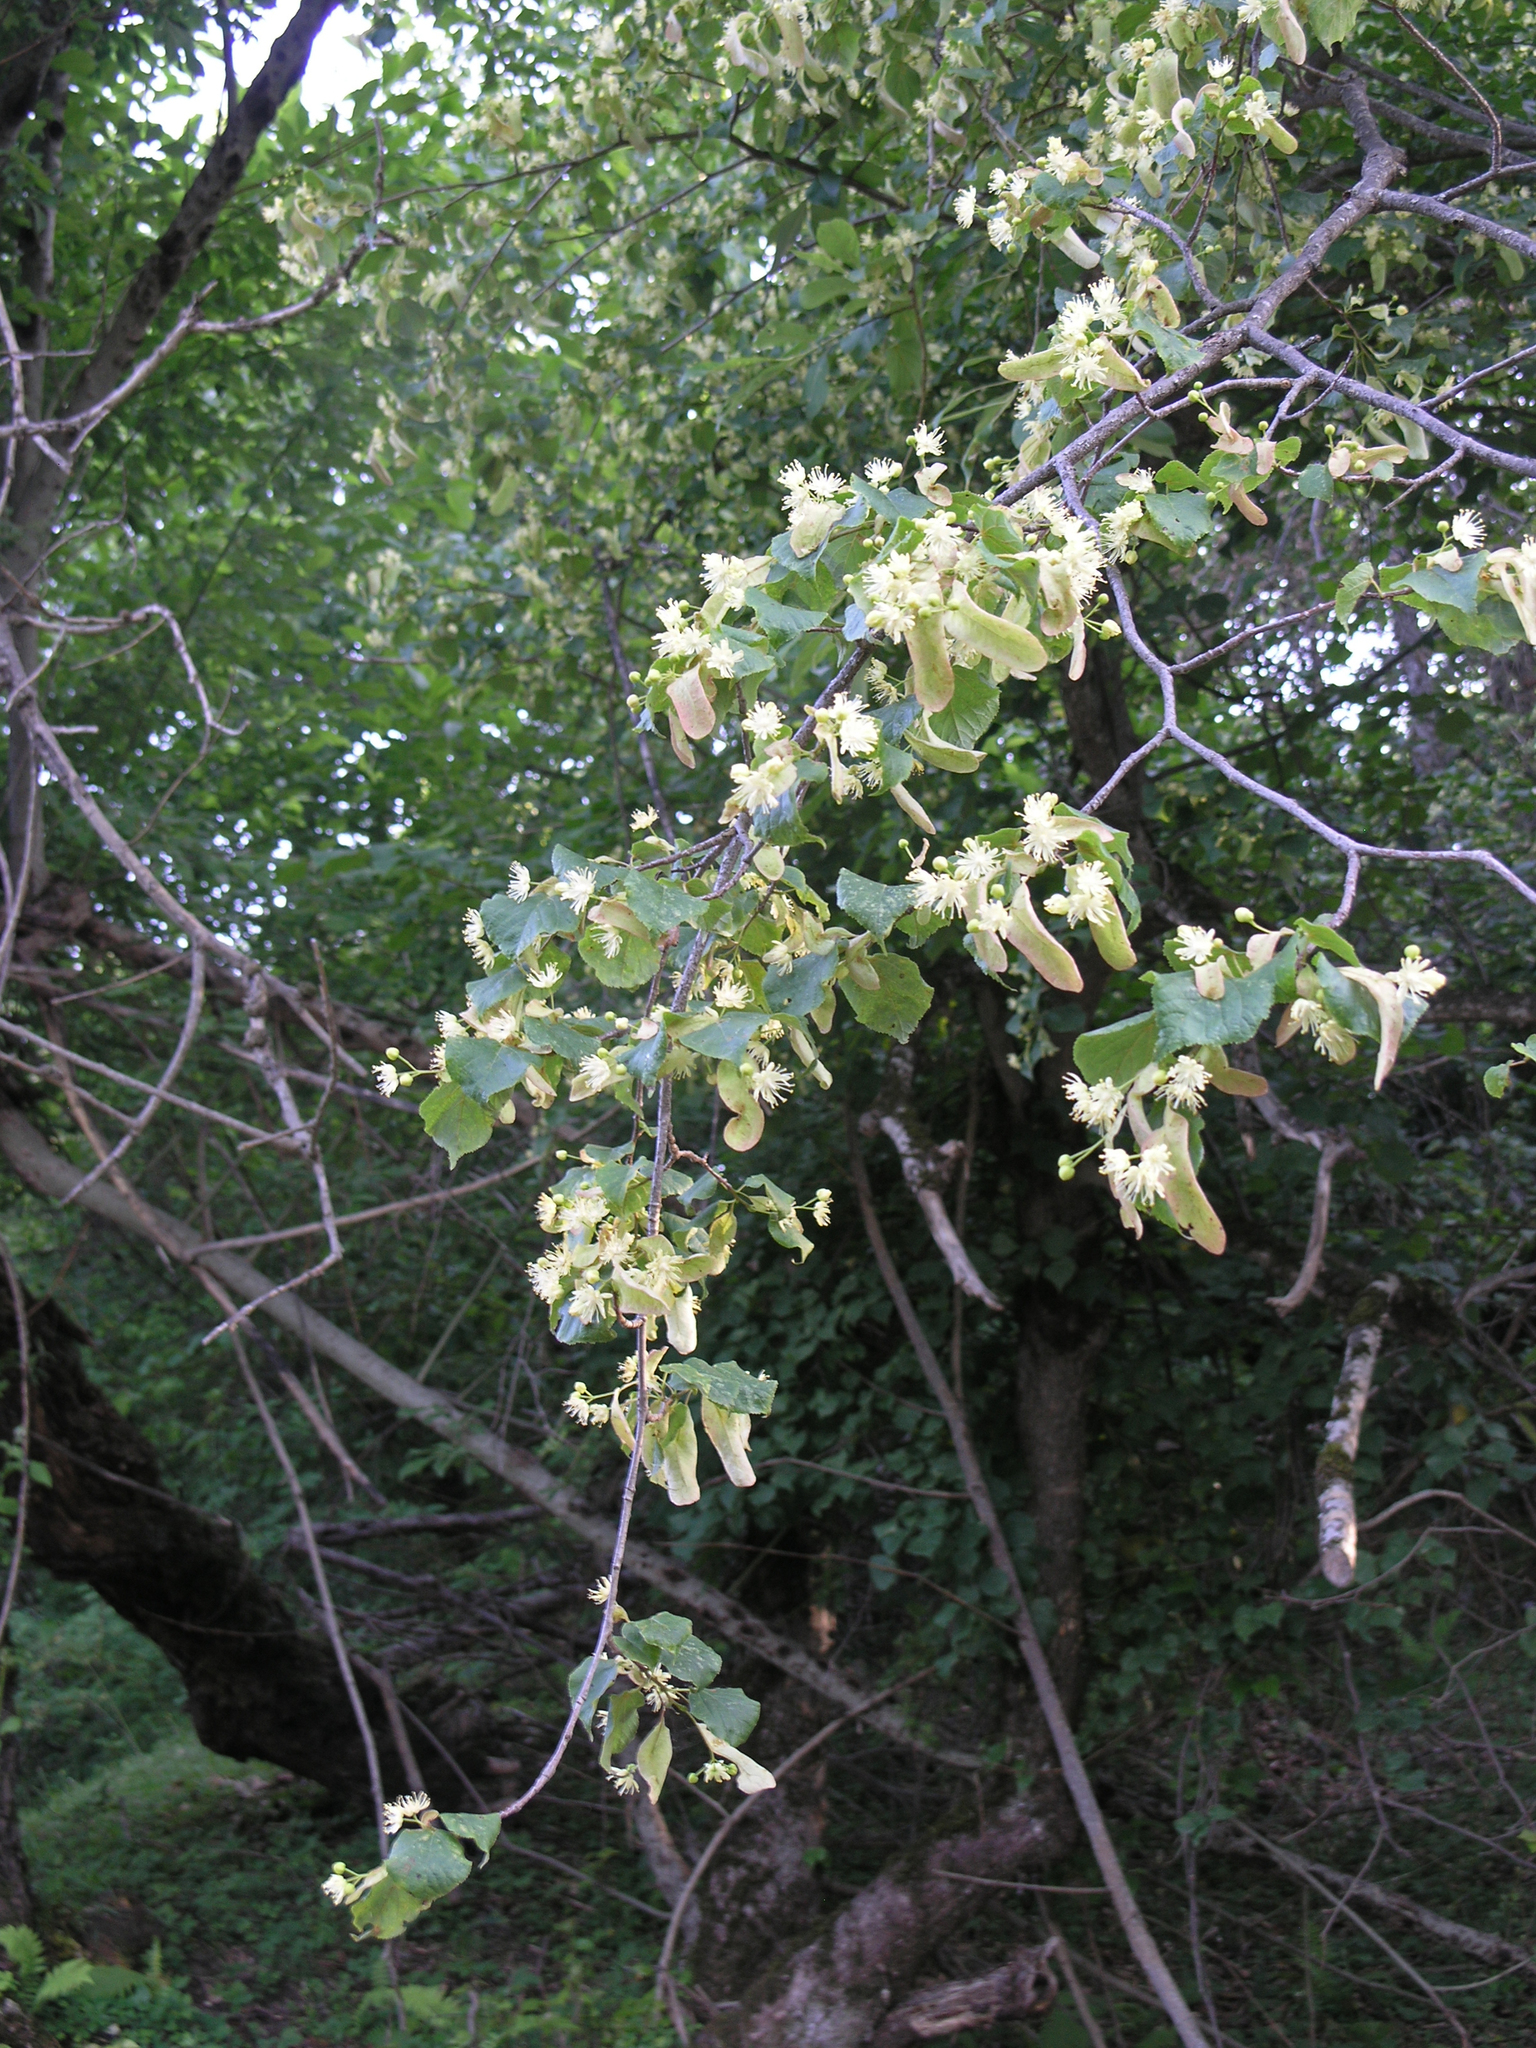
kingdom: Plantae
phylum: Tracheophyta
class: Magnoliopsida
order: Malvales
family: Malvaceae
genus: Tilia
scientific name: Tilia cordata
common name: Small-leaved lime
